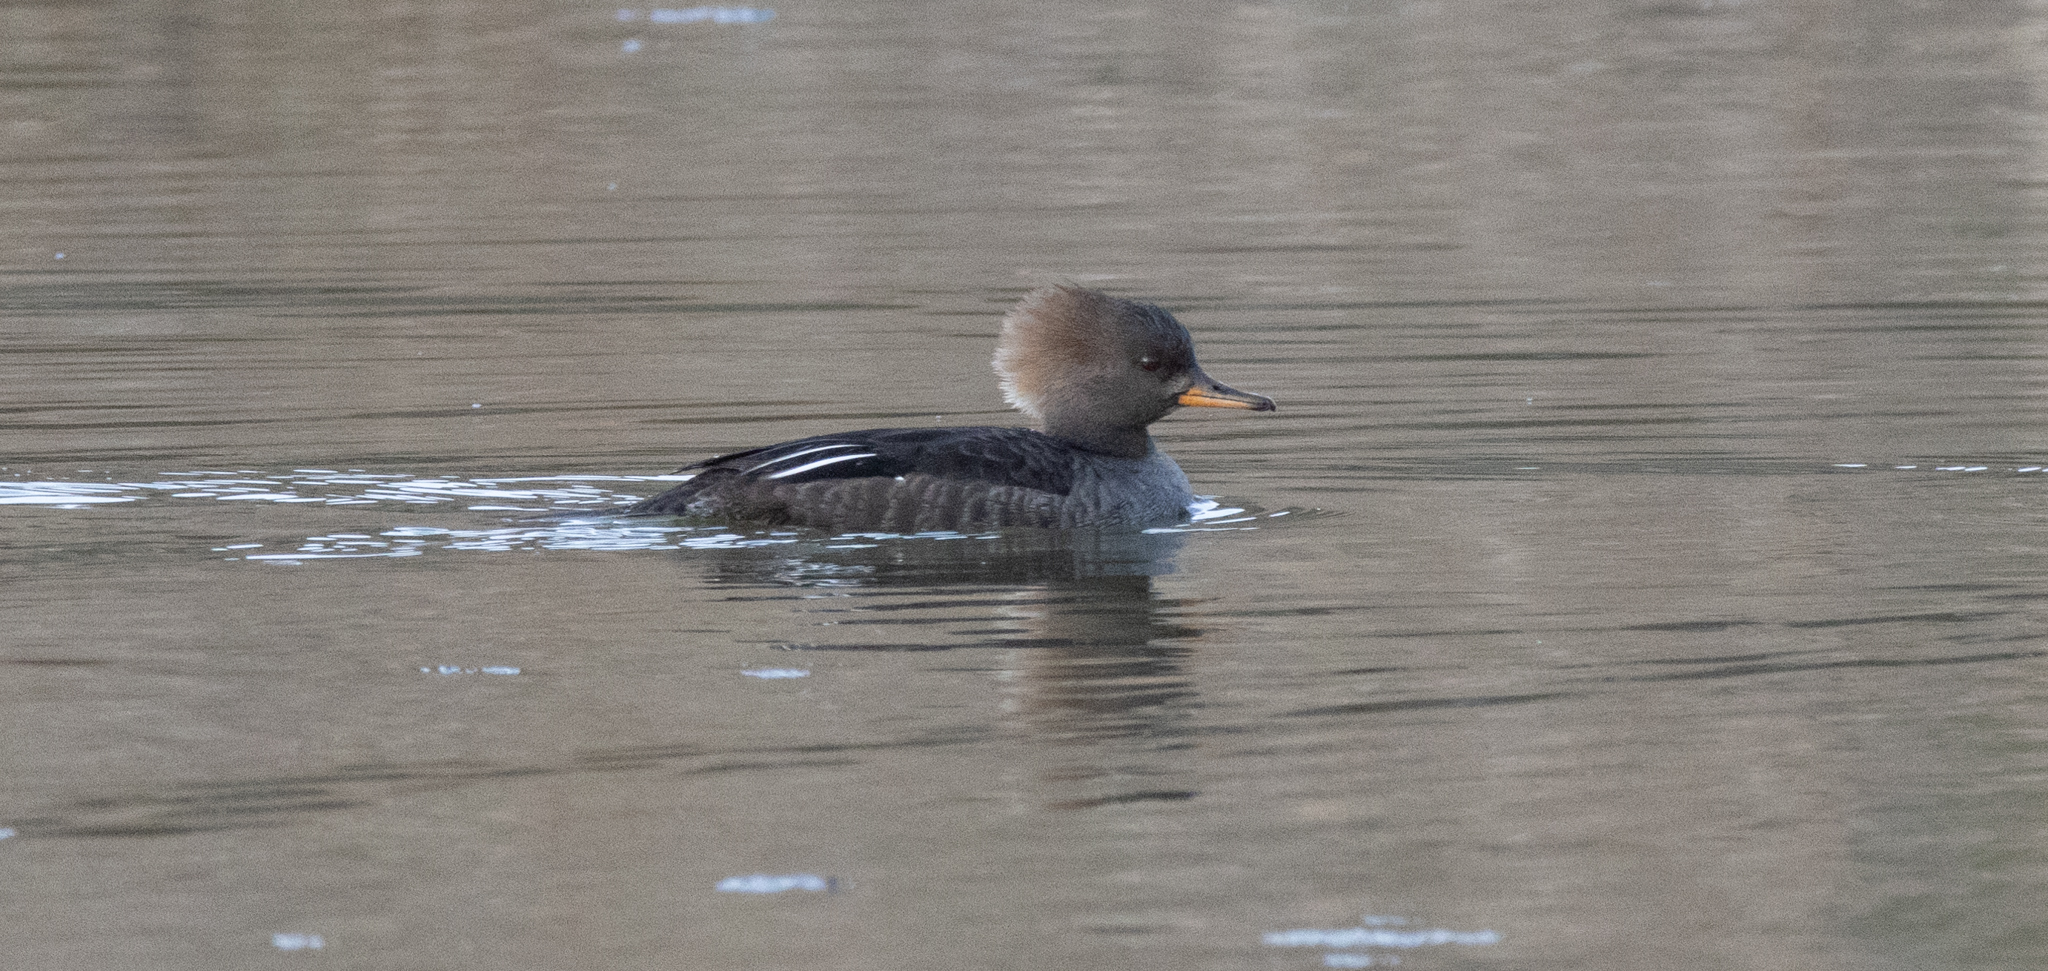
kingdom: Animalia
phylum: Chordata
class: Aves
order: Anseriformes
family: Anatidae
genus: Lophodytes
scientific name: Lophodytes cucullatus
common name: Hooded merganser
